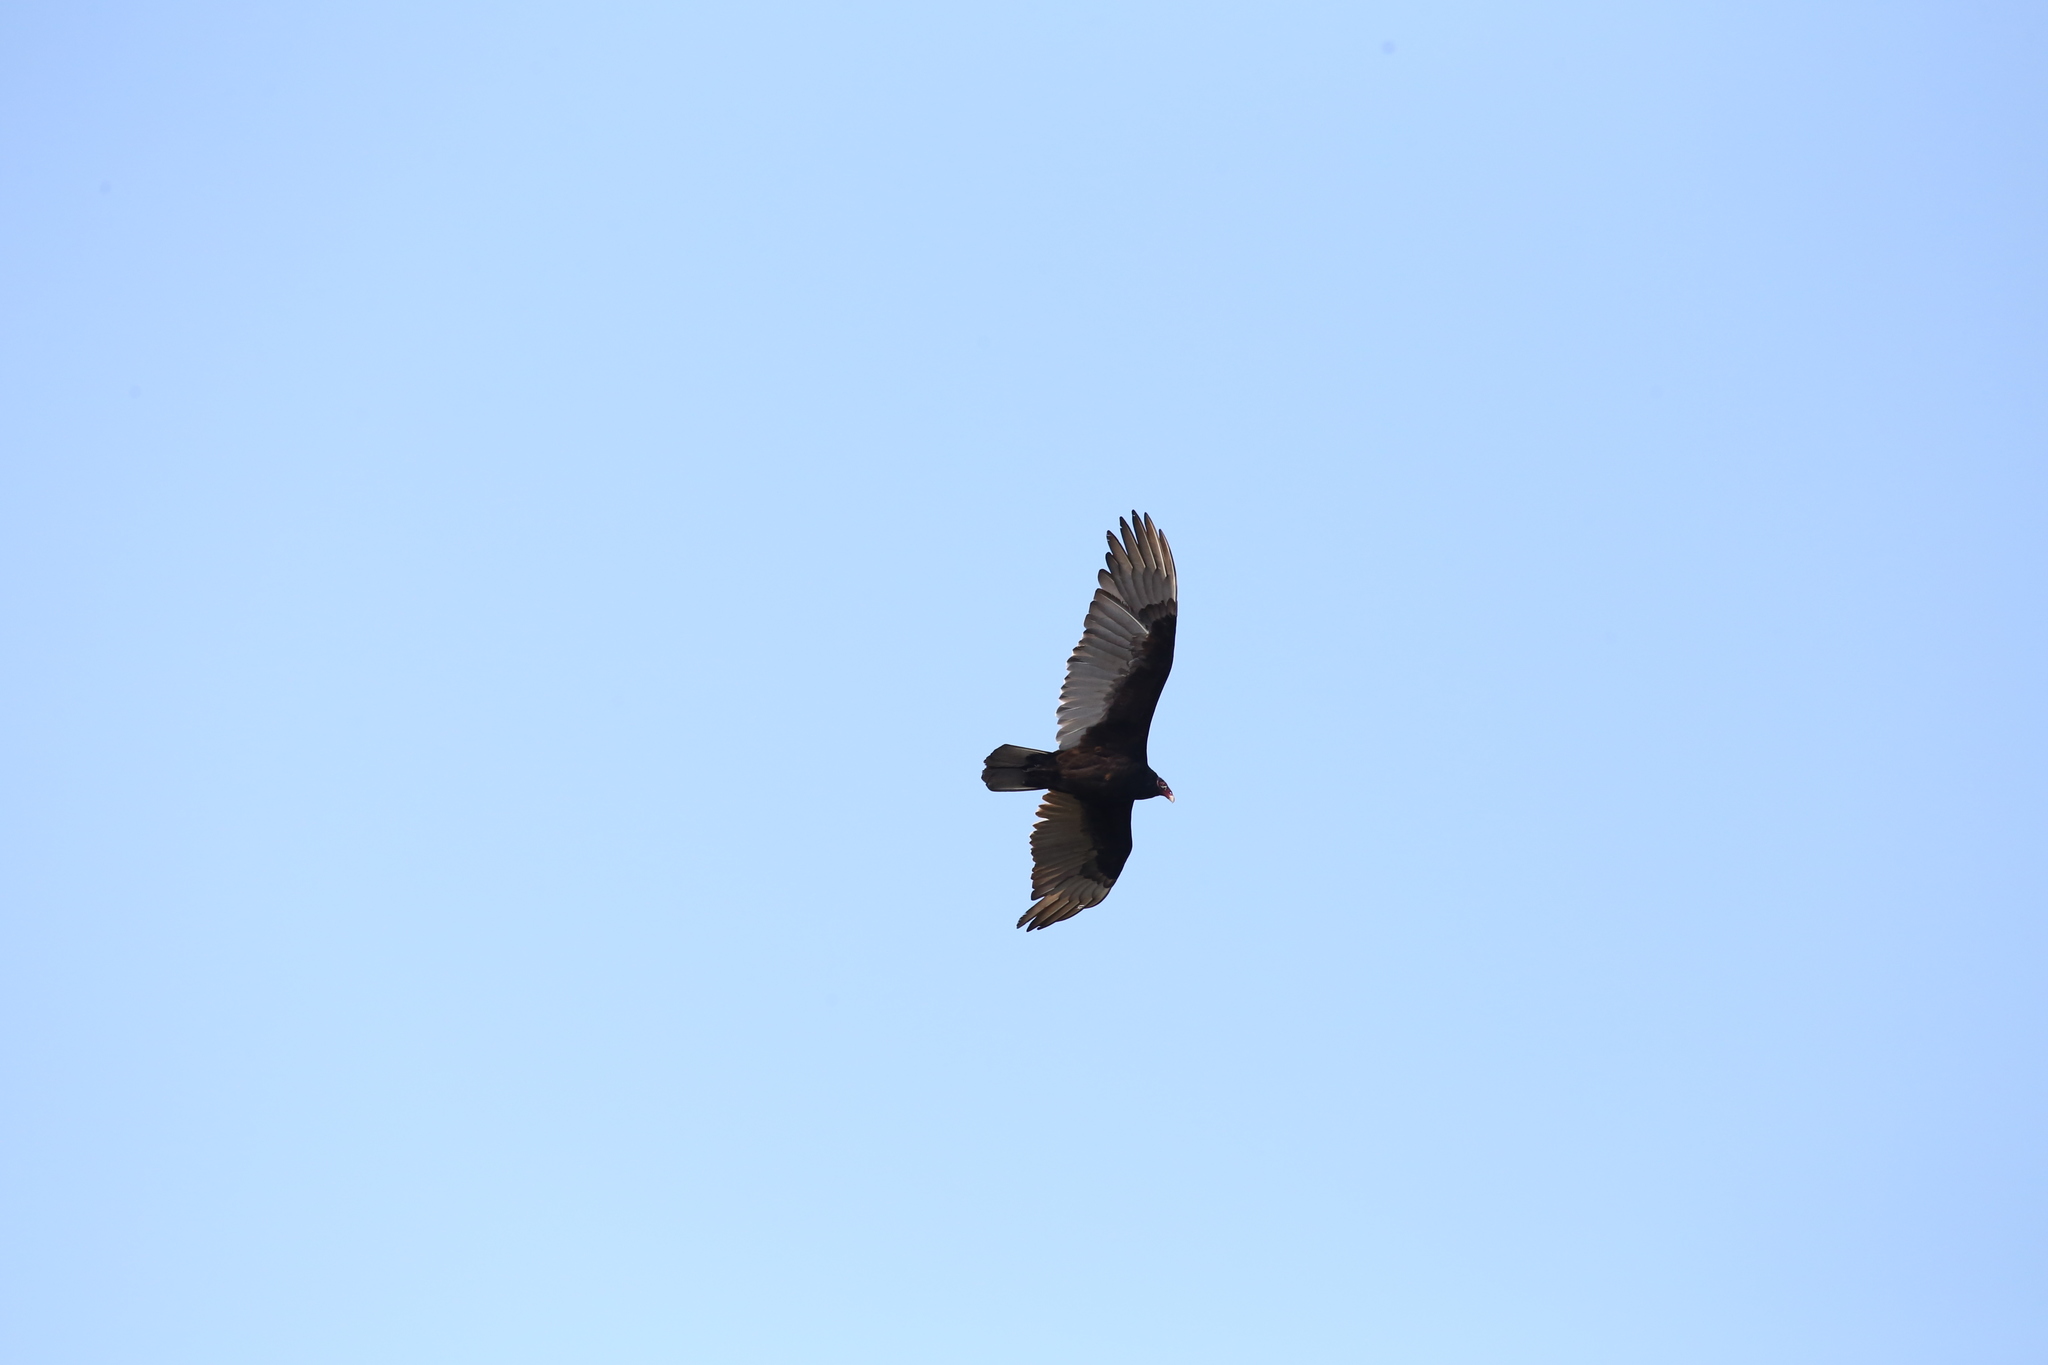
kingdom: Animalia
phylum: Chordata
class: Aves
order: Accipitriformes
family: Cathartidae
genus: Cathartes
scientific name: Cathartes aura
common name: Turkey vulture
